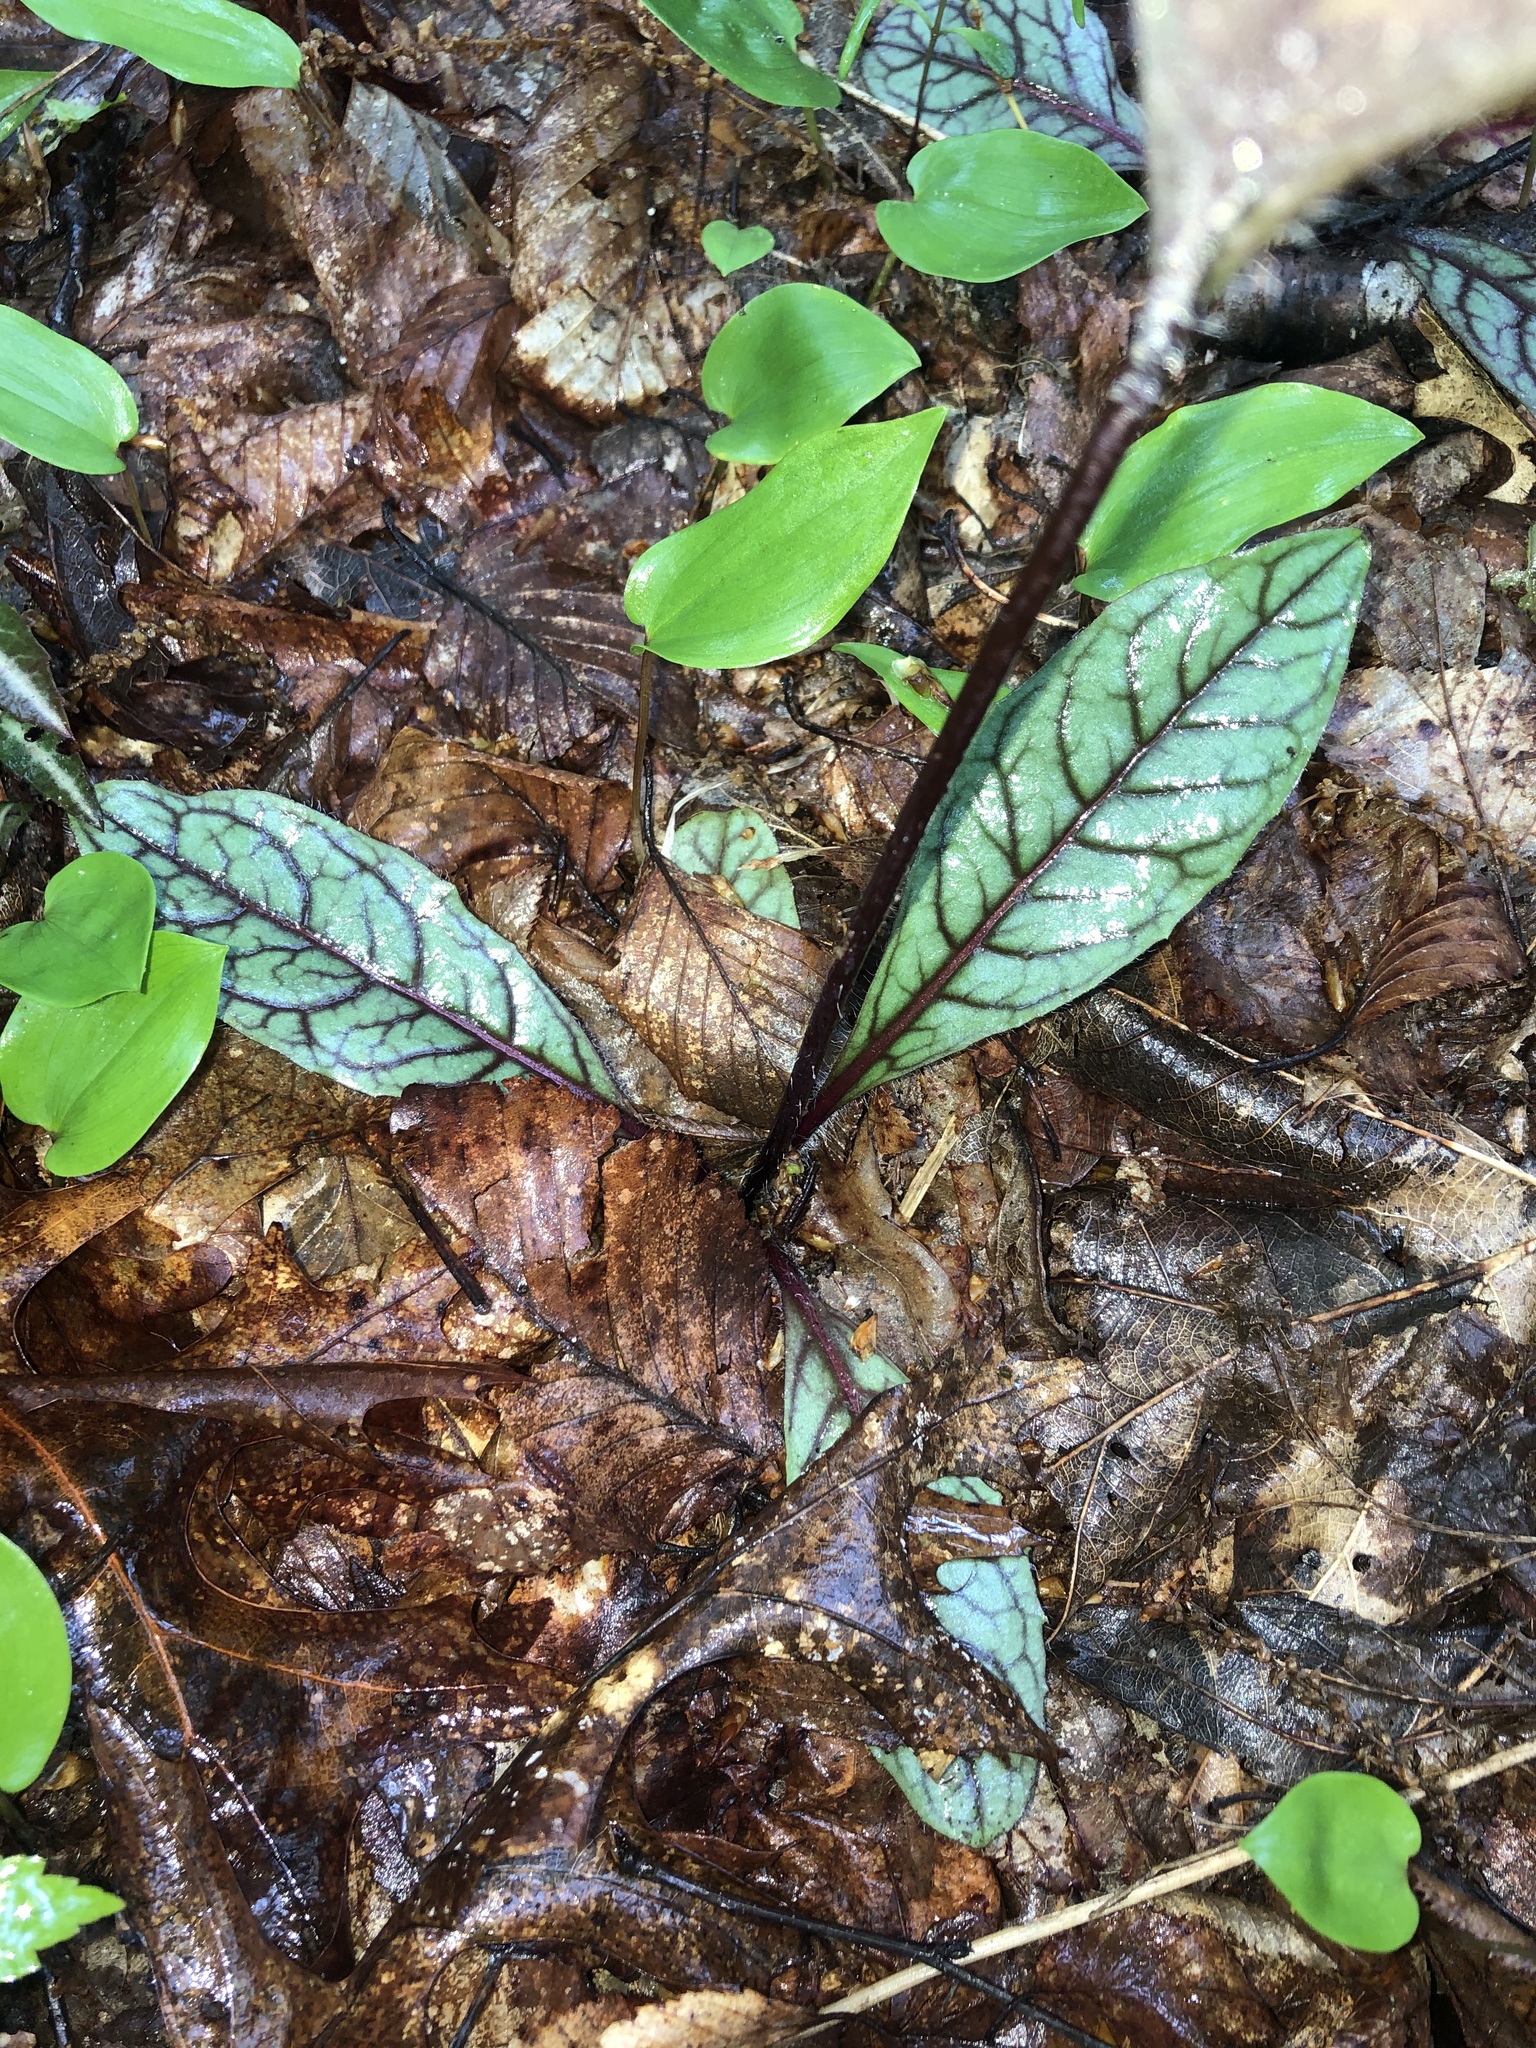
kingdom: Plantae
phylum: Tracheophyta
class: Magnoliopsida
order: Asterales
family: Asteraceae
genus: Hieracium
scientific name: Hieracium venosum
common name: Rattlesnake hawkweed
